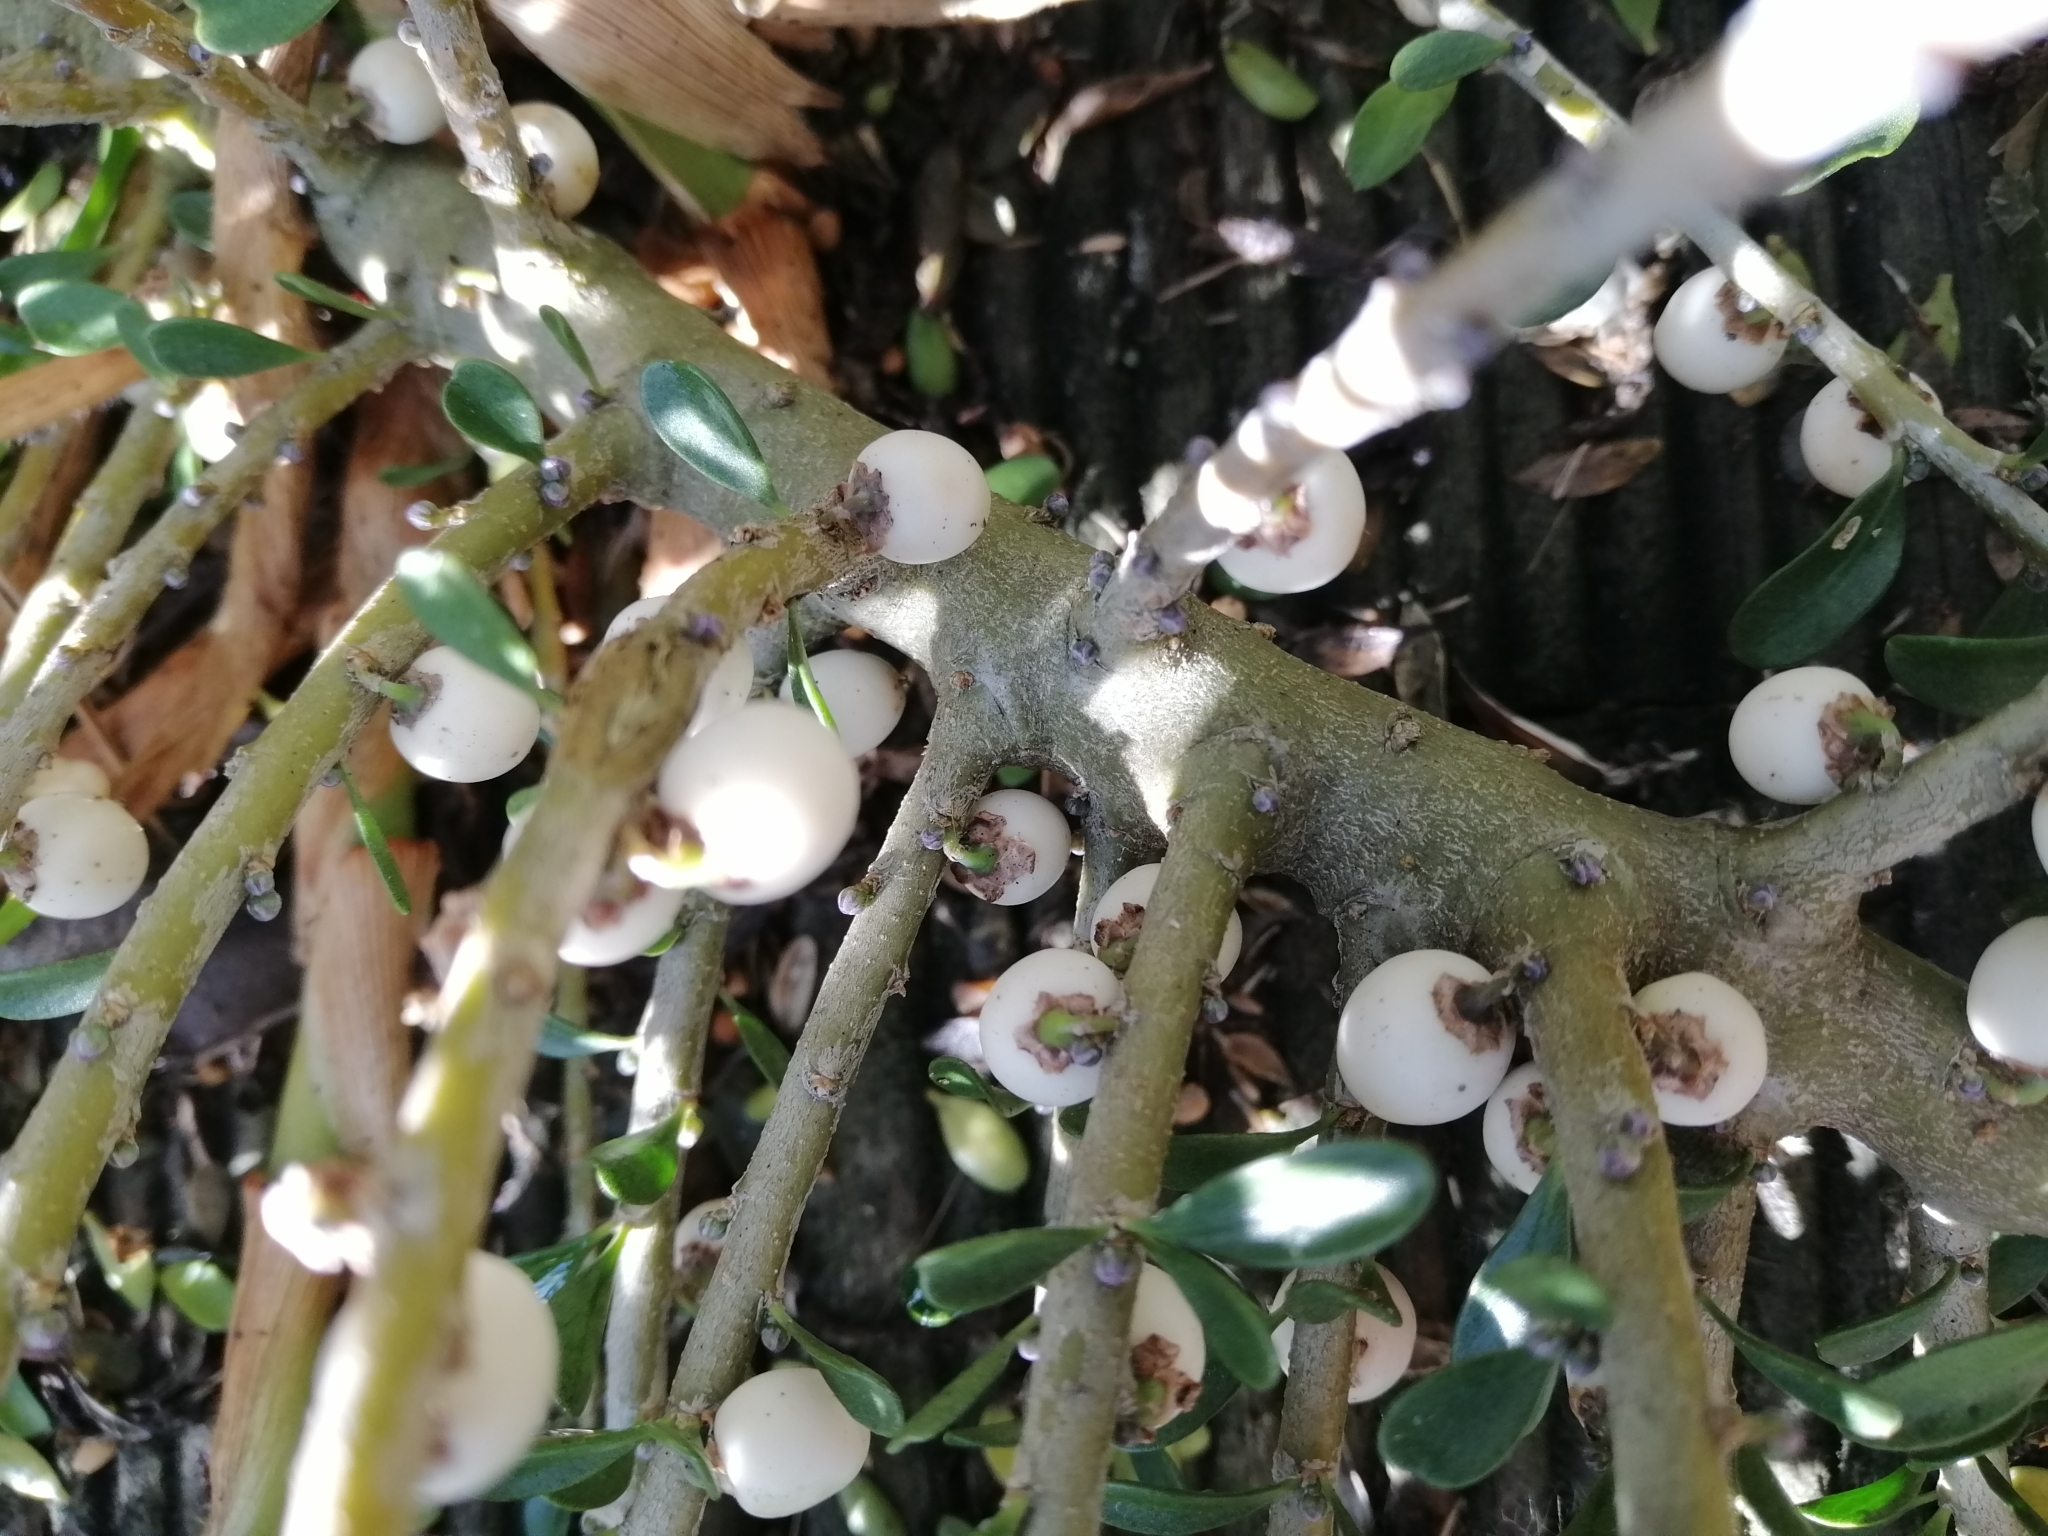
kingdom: Plantae
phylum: Tracheophyta
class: Magnoliopsida
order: Malpighiales
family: Violaceae
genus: Melicytus
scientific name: Melicytus crassifolius
